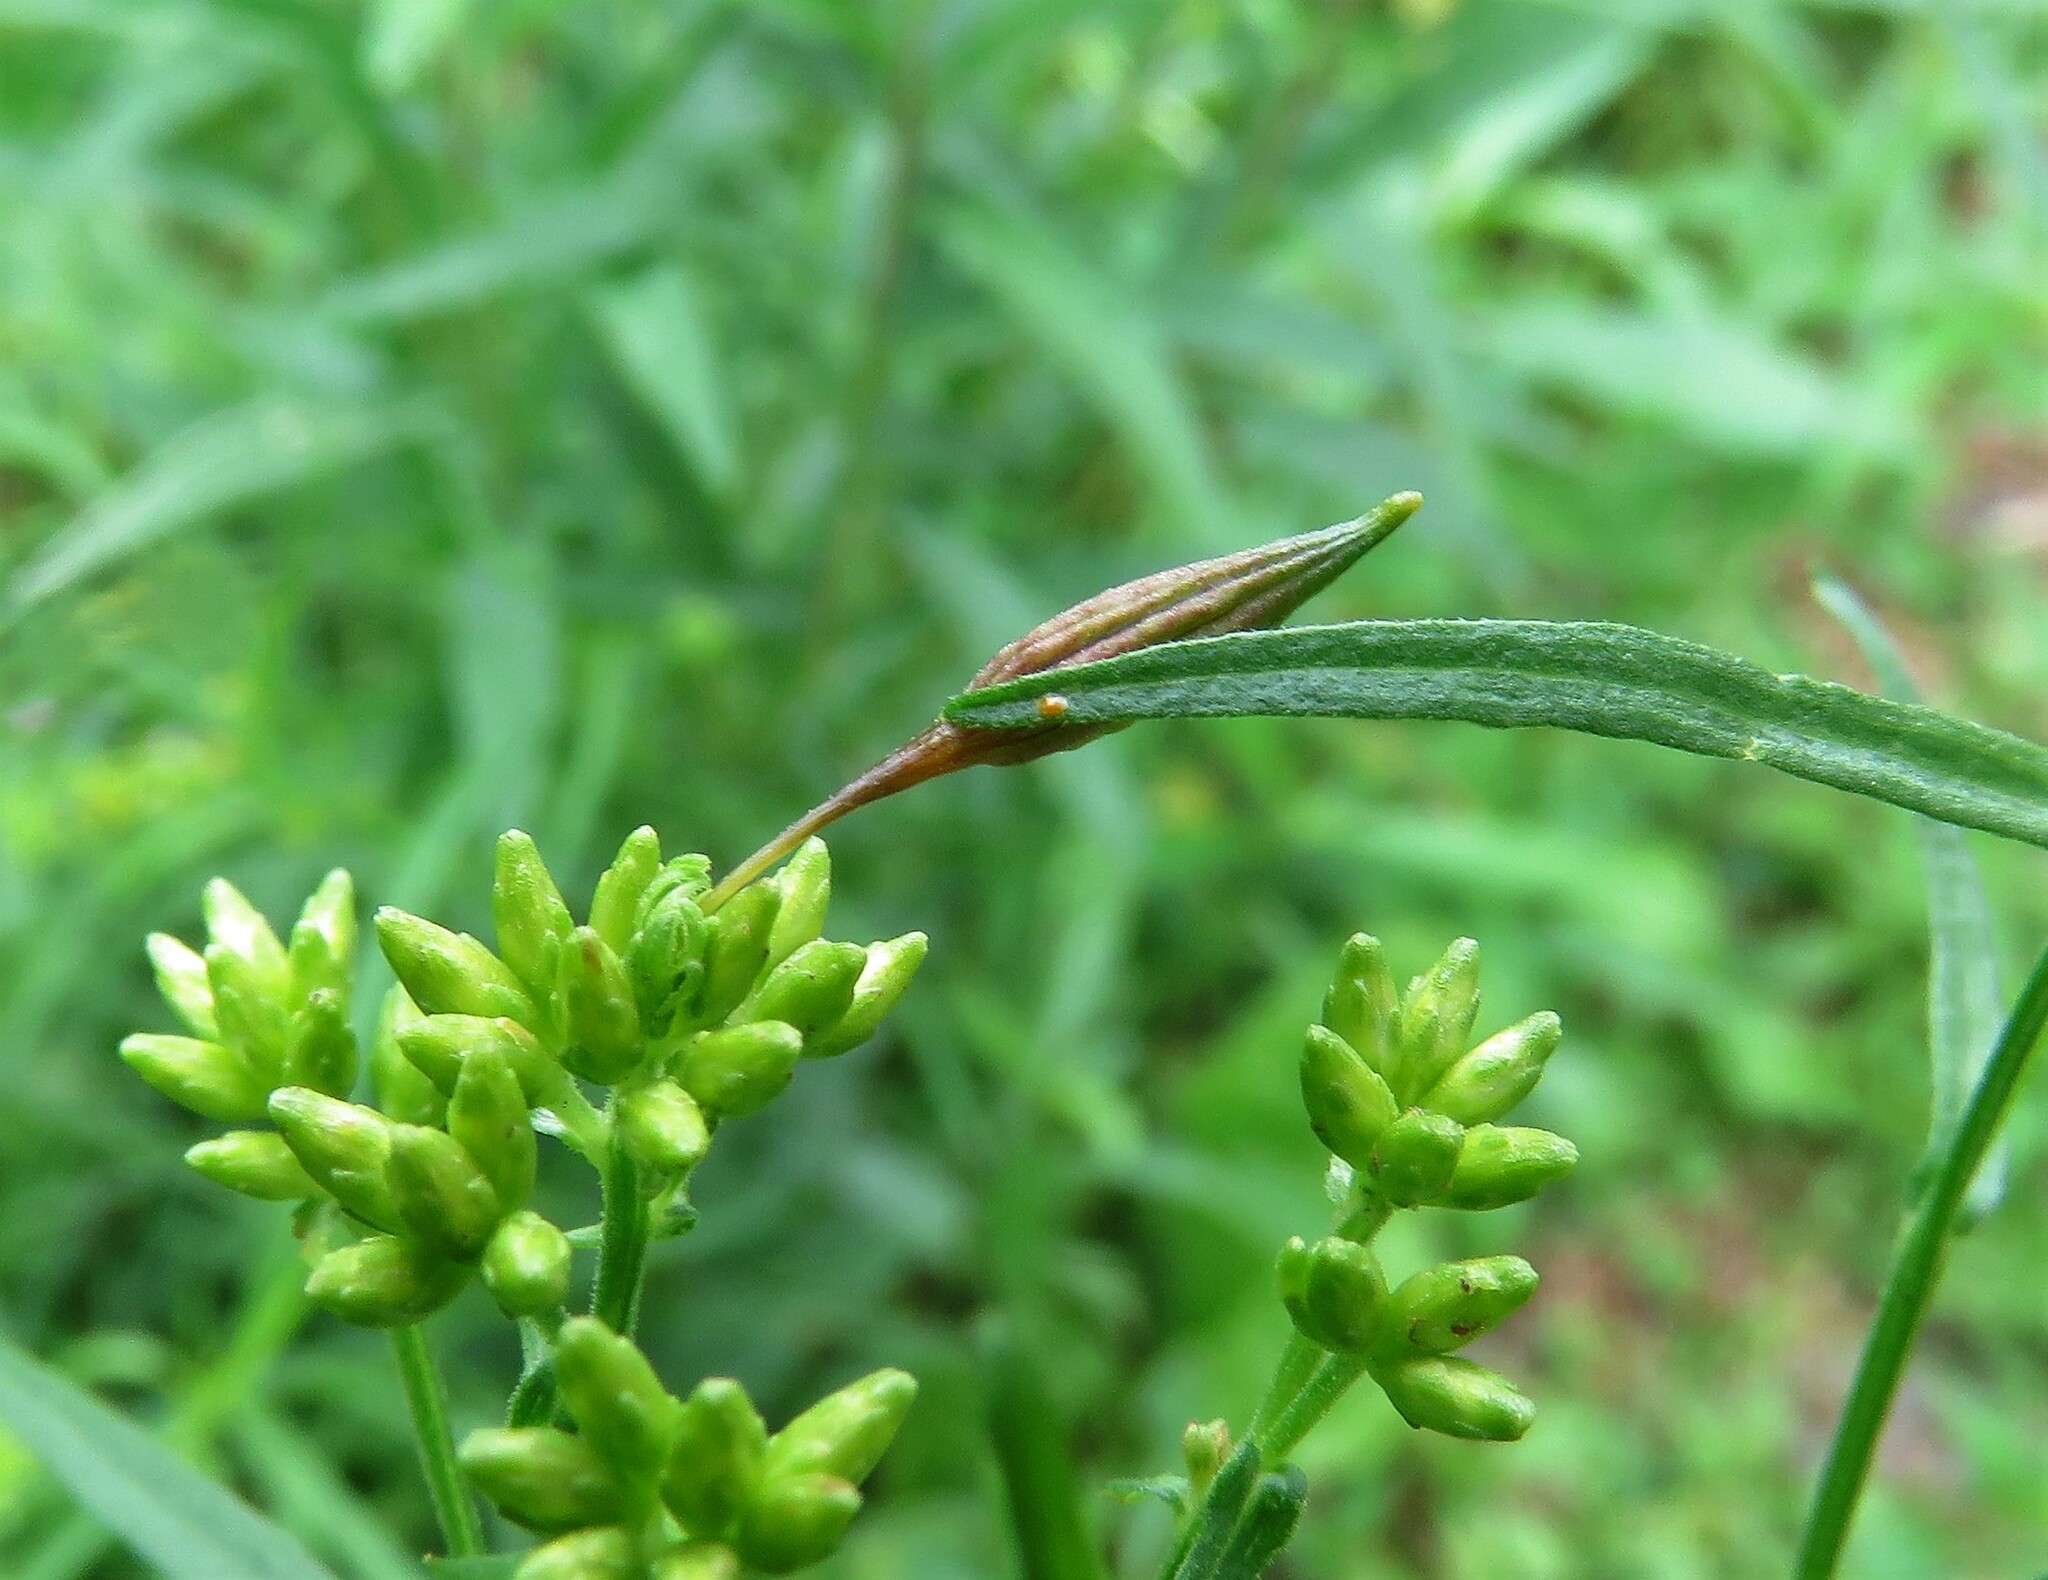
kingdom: Animalia
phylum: Arthropoda
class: Insecta
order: Diptera
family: Cecidomyiidae
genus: Rhopalomyia
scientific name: Rhopalomyia pedicellata
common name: Goldentop pedicellate gall midge
